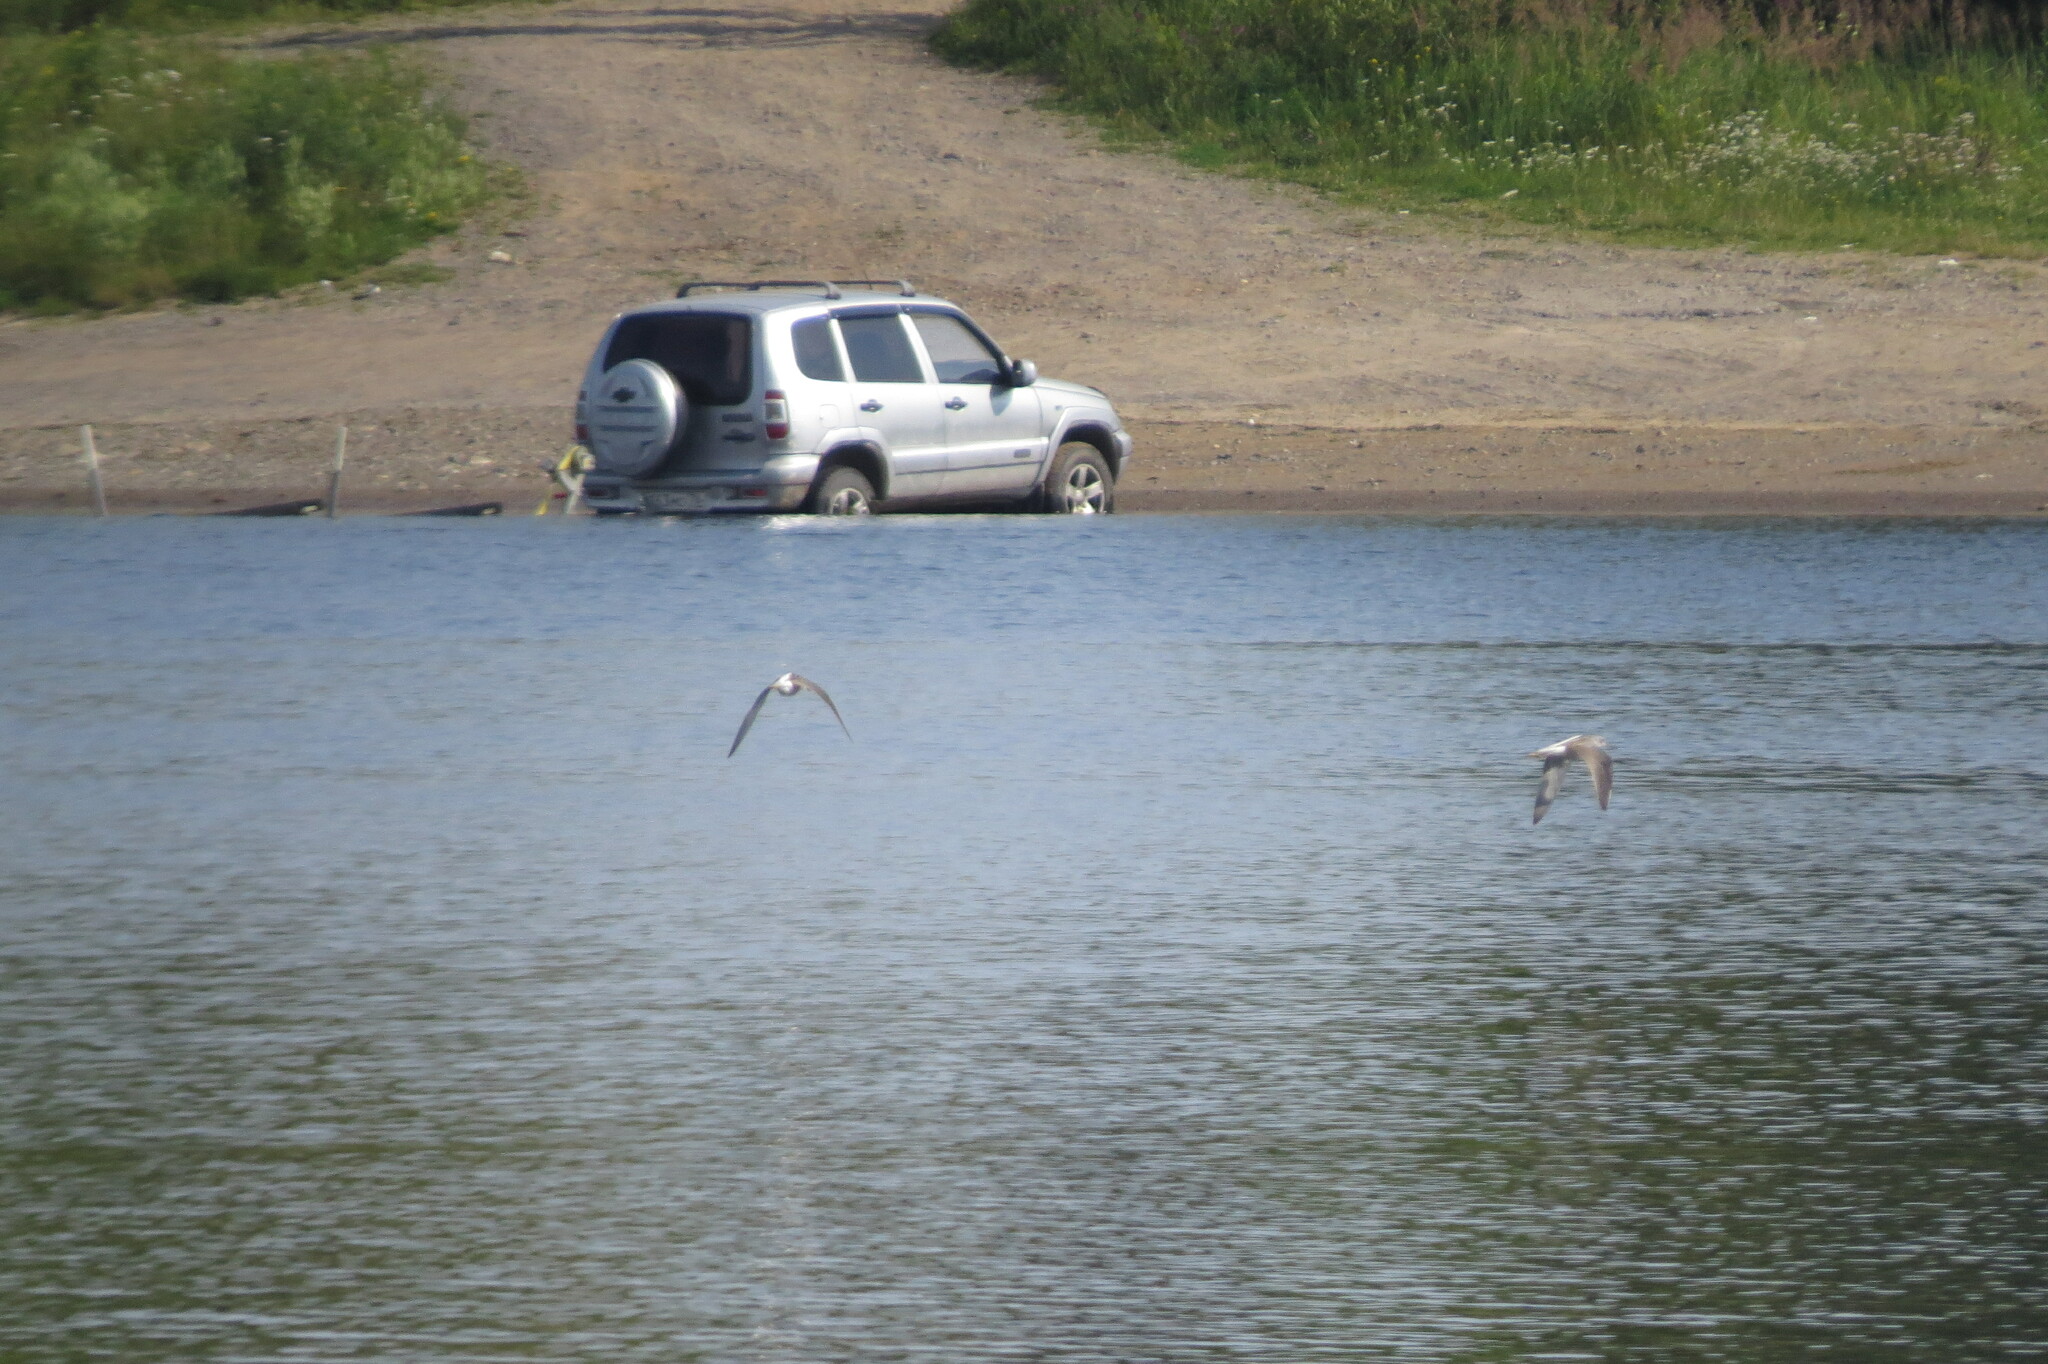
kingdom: Animalia
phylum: Chordata
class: Aves
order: Charadriiformes
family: Scolopacidae
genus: Tringa
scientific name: Tringa nebularia
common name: Common greenshank
